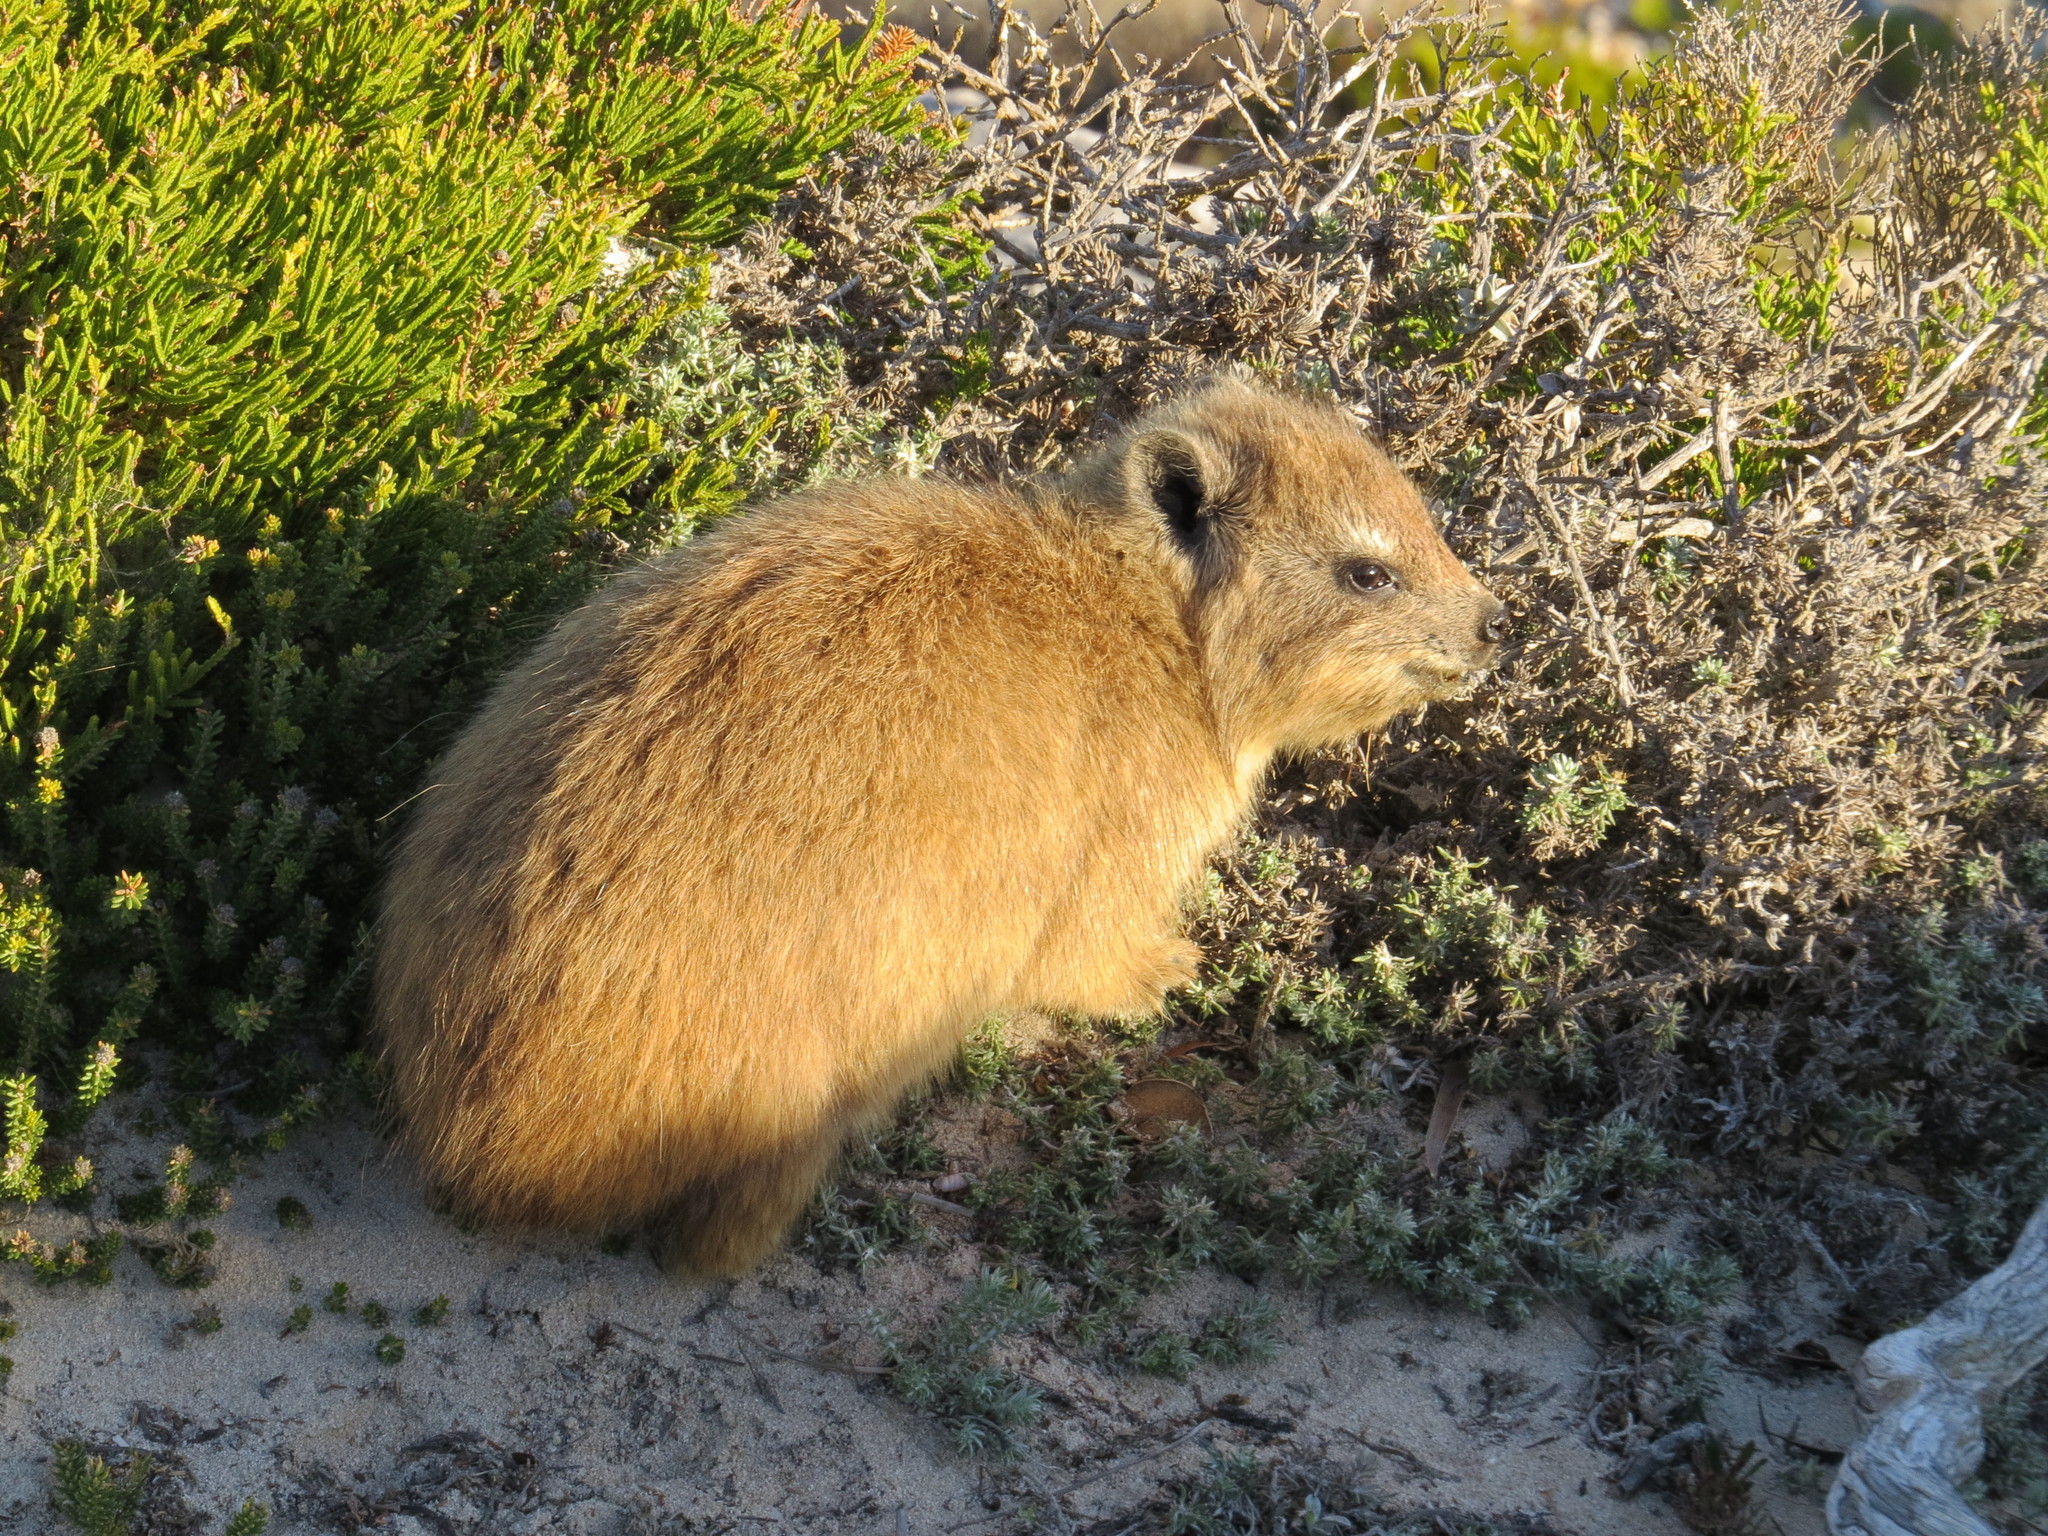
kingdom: Animalia
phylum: Chordata
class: Mammalia
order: Hyracoidea
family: Procaviidae
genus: Procavia
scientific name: Procavia capensis
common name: Rock hyrax
